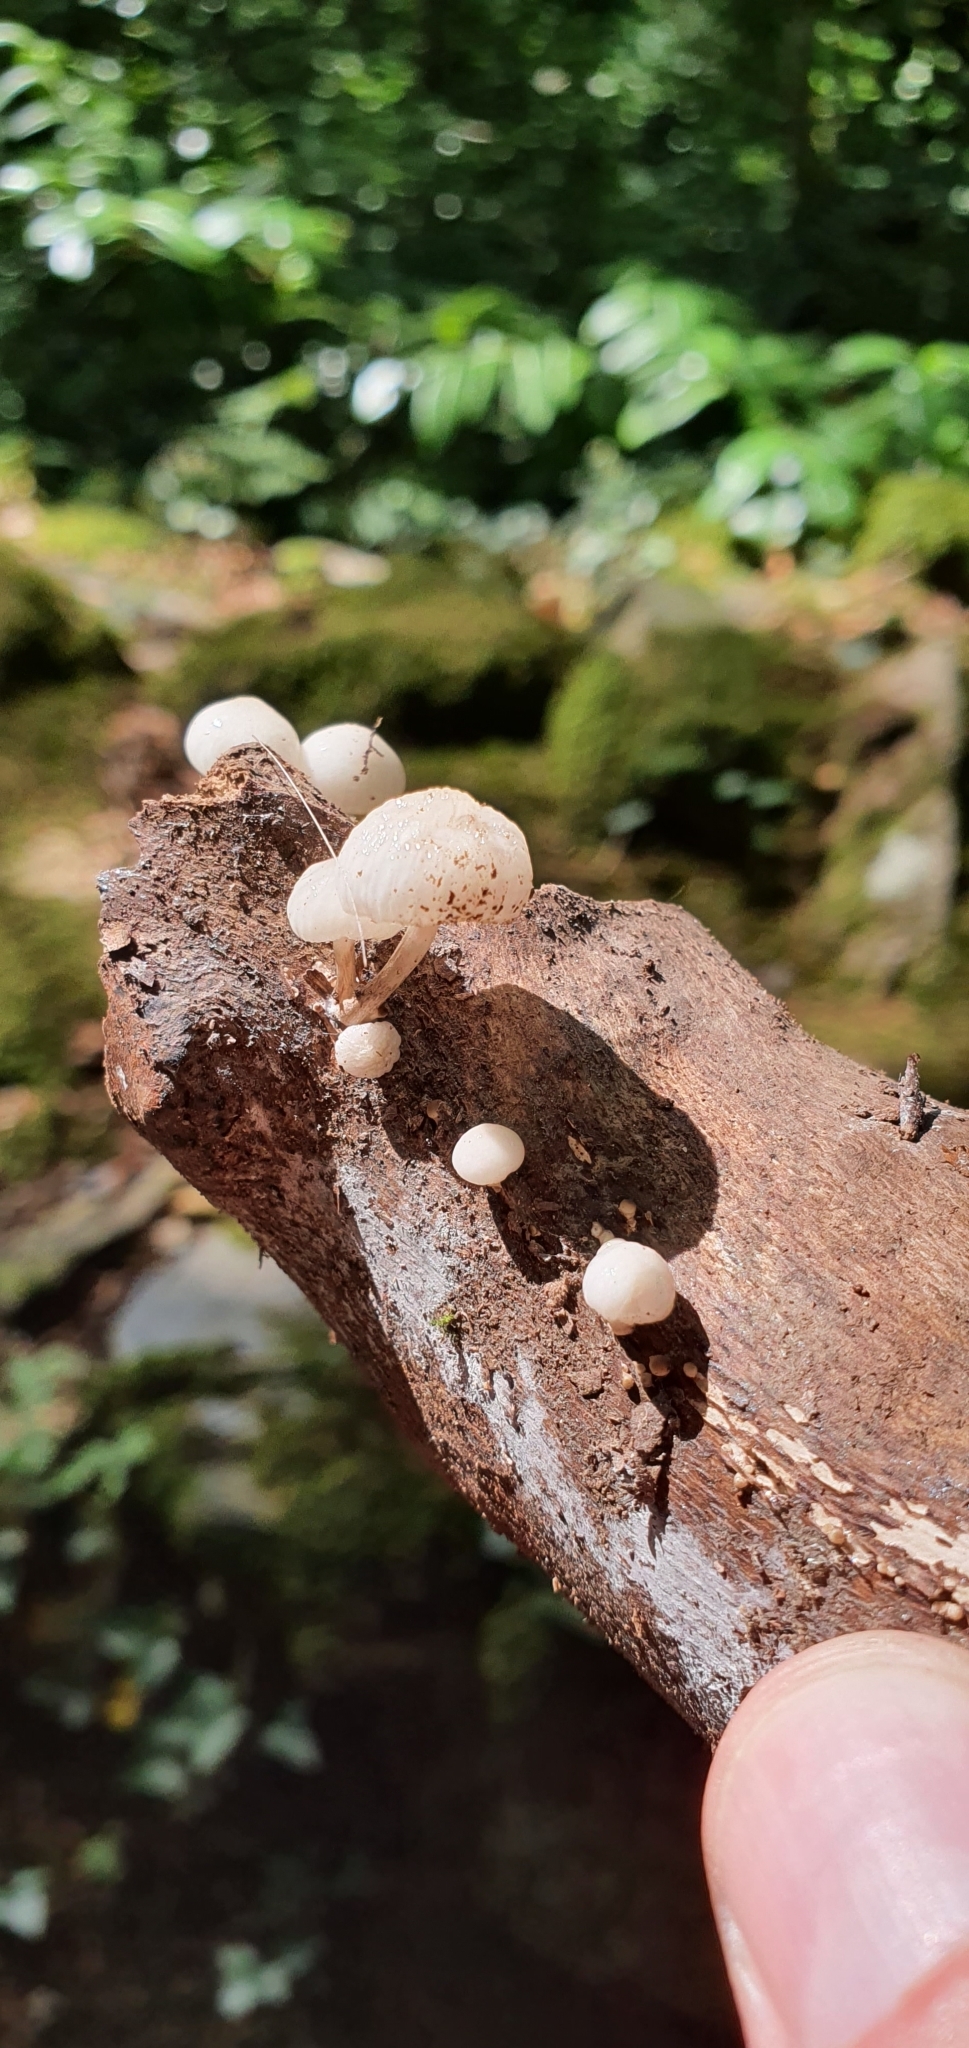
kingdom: Fungi
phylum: Basidiomycota
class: Agaricomycetes
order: Agaricales
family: Physalacriaceae
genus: Mucidula
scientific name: Mucidula mucida
